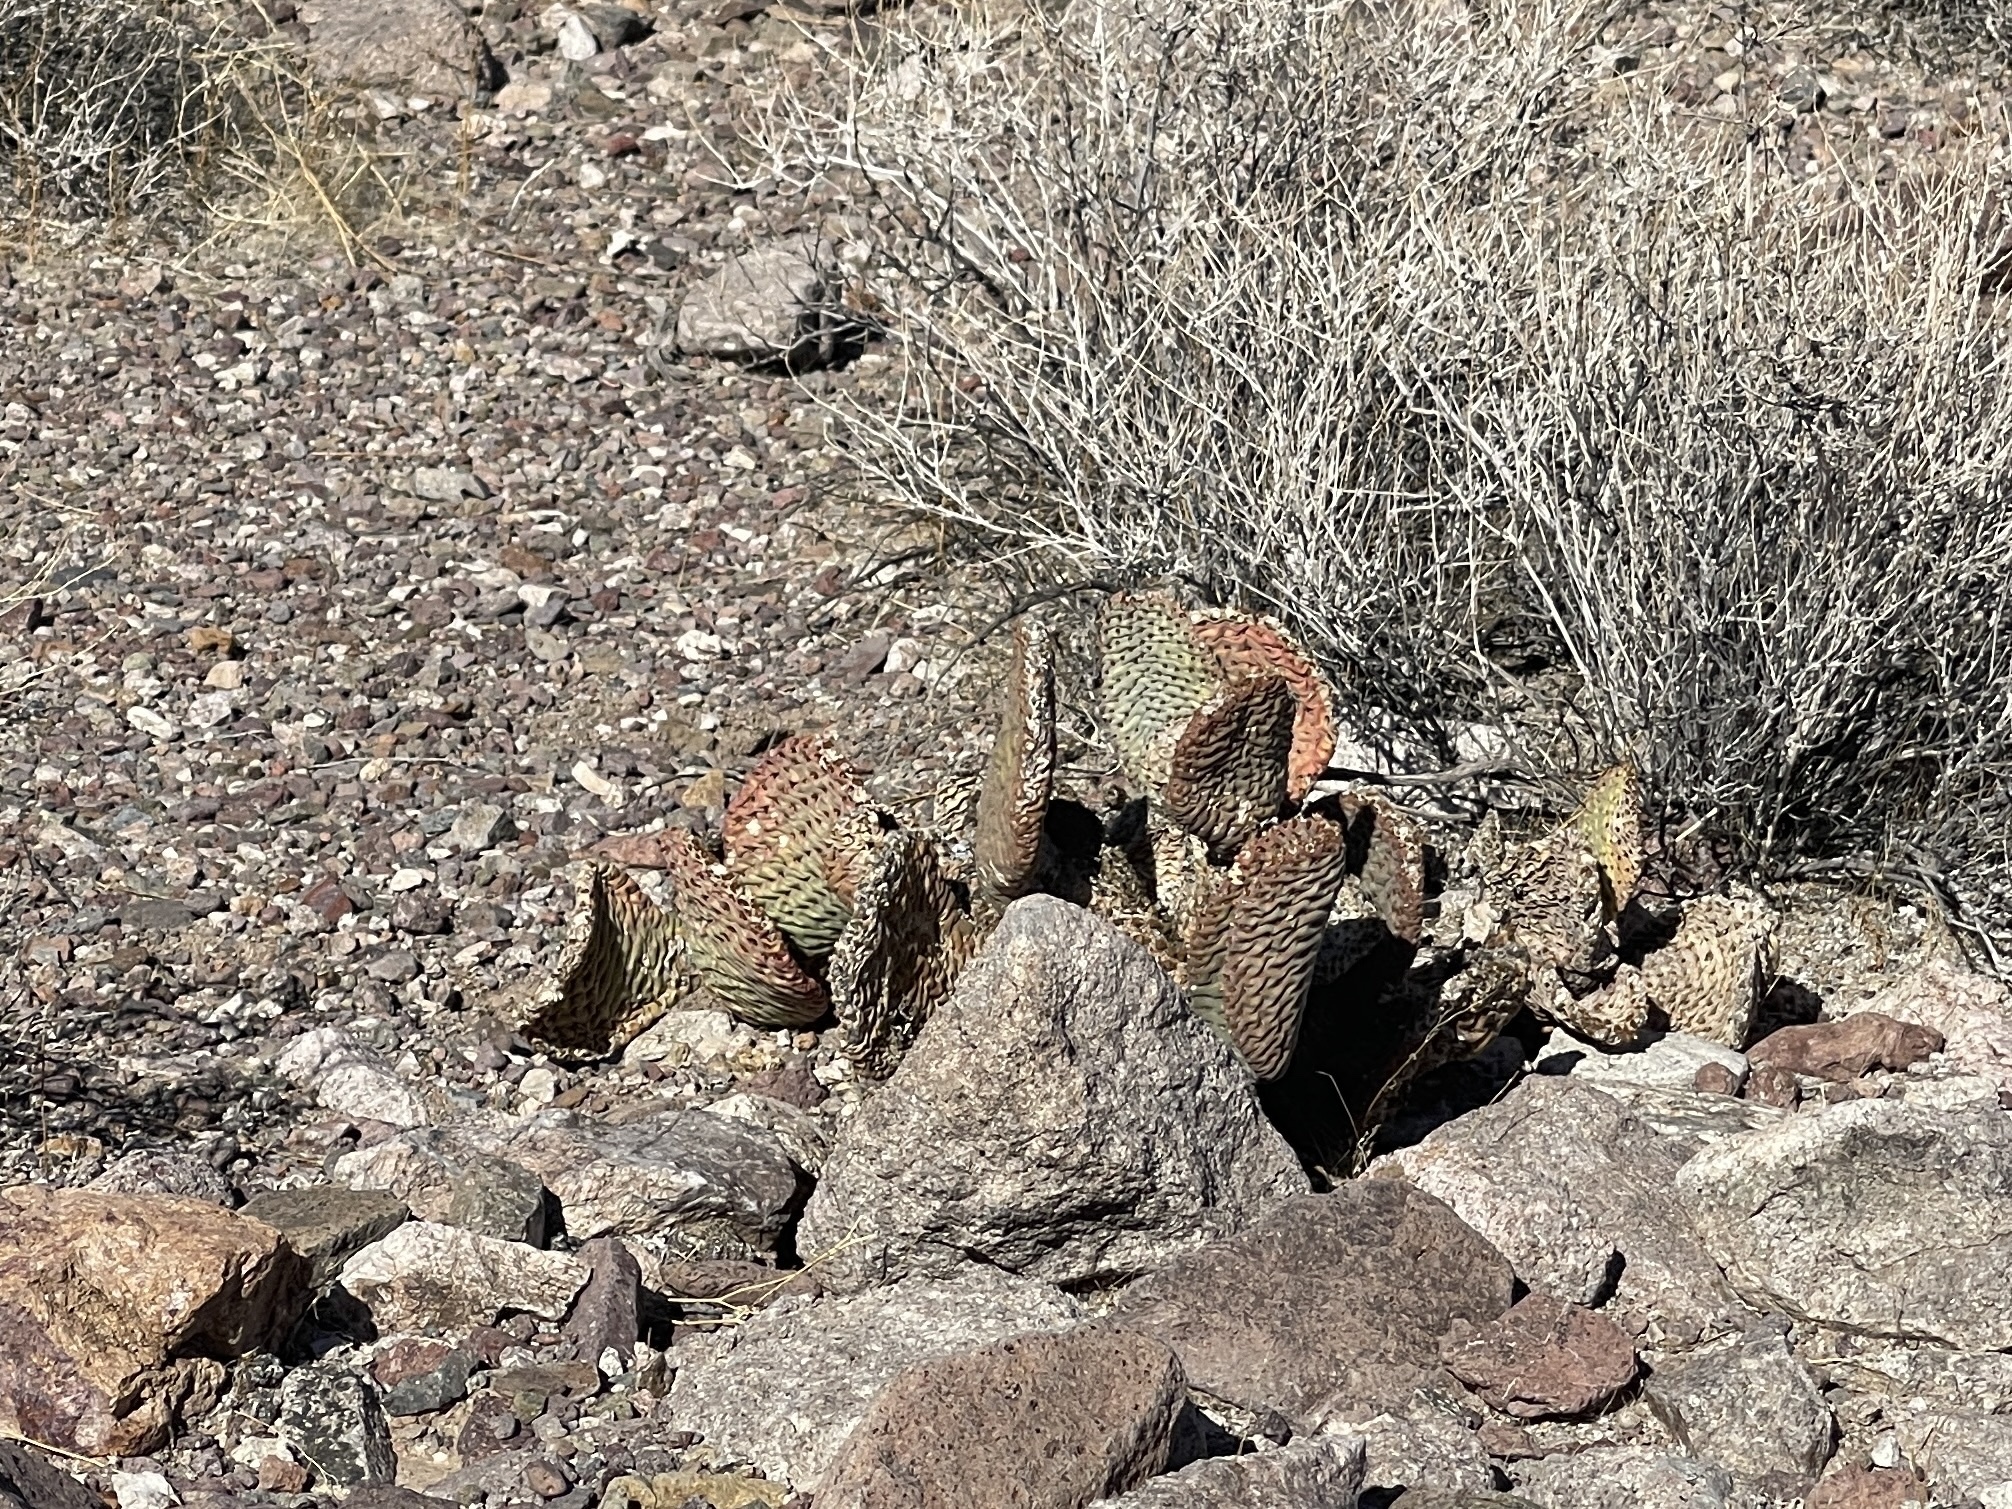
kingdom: Plantae
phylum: Tracheophyta
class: Magnoliopsida
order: Caryophyllales
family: Cactaceae
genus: Opuntia
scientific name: Opuntia basilaris
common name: Beavertail prickly-pear
